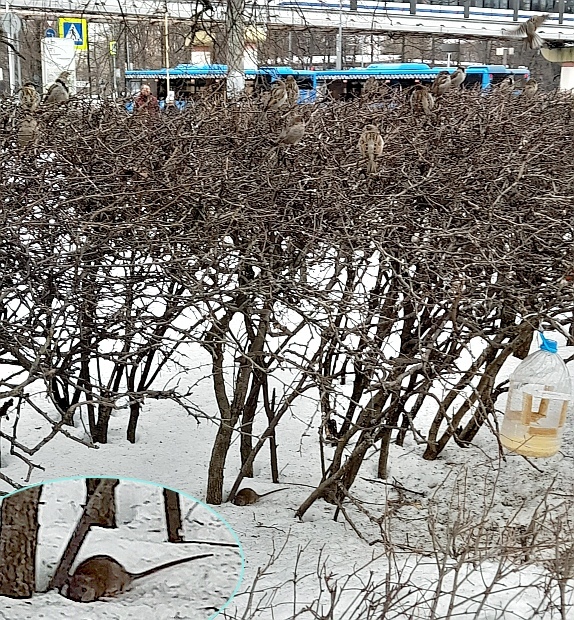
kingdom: Animalia
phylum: Chordata
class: Mammalia
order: Rodentia
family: Muridae
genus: Rattus
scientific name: Rattus norvegicus
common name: Brown rat
